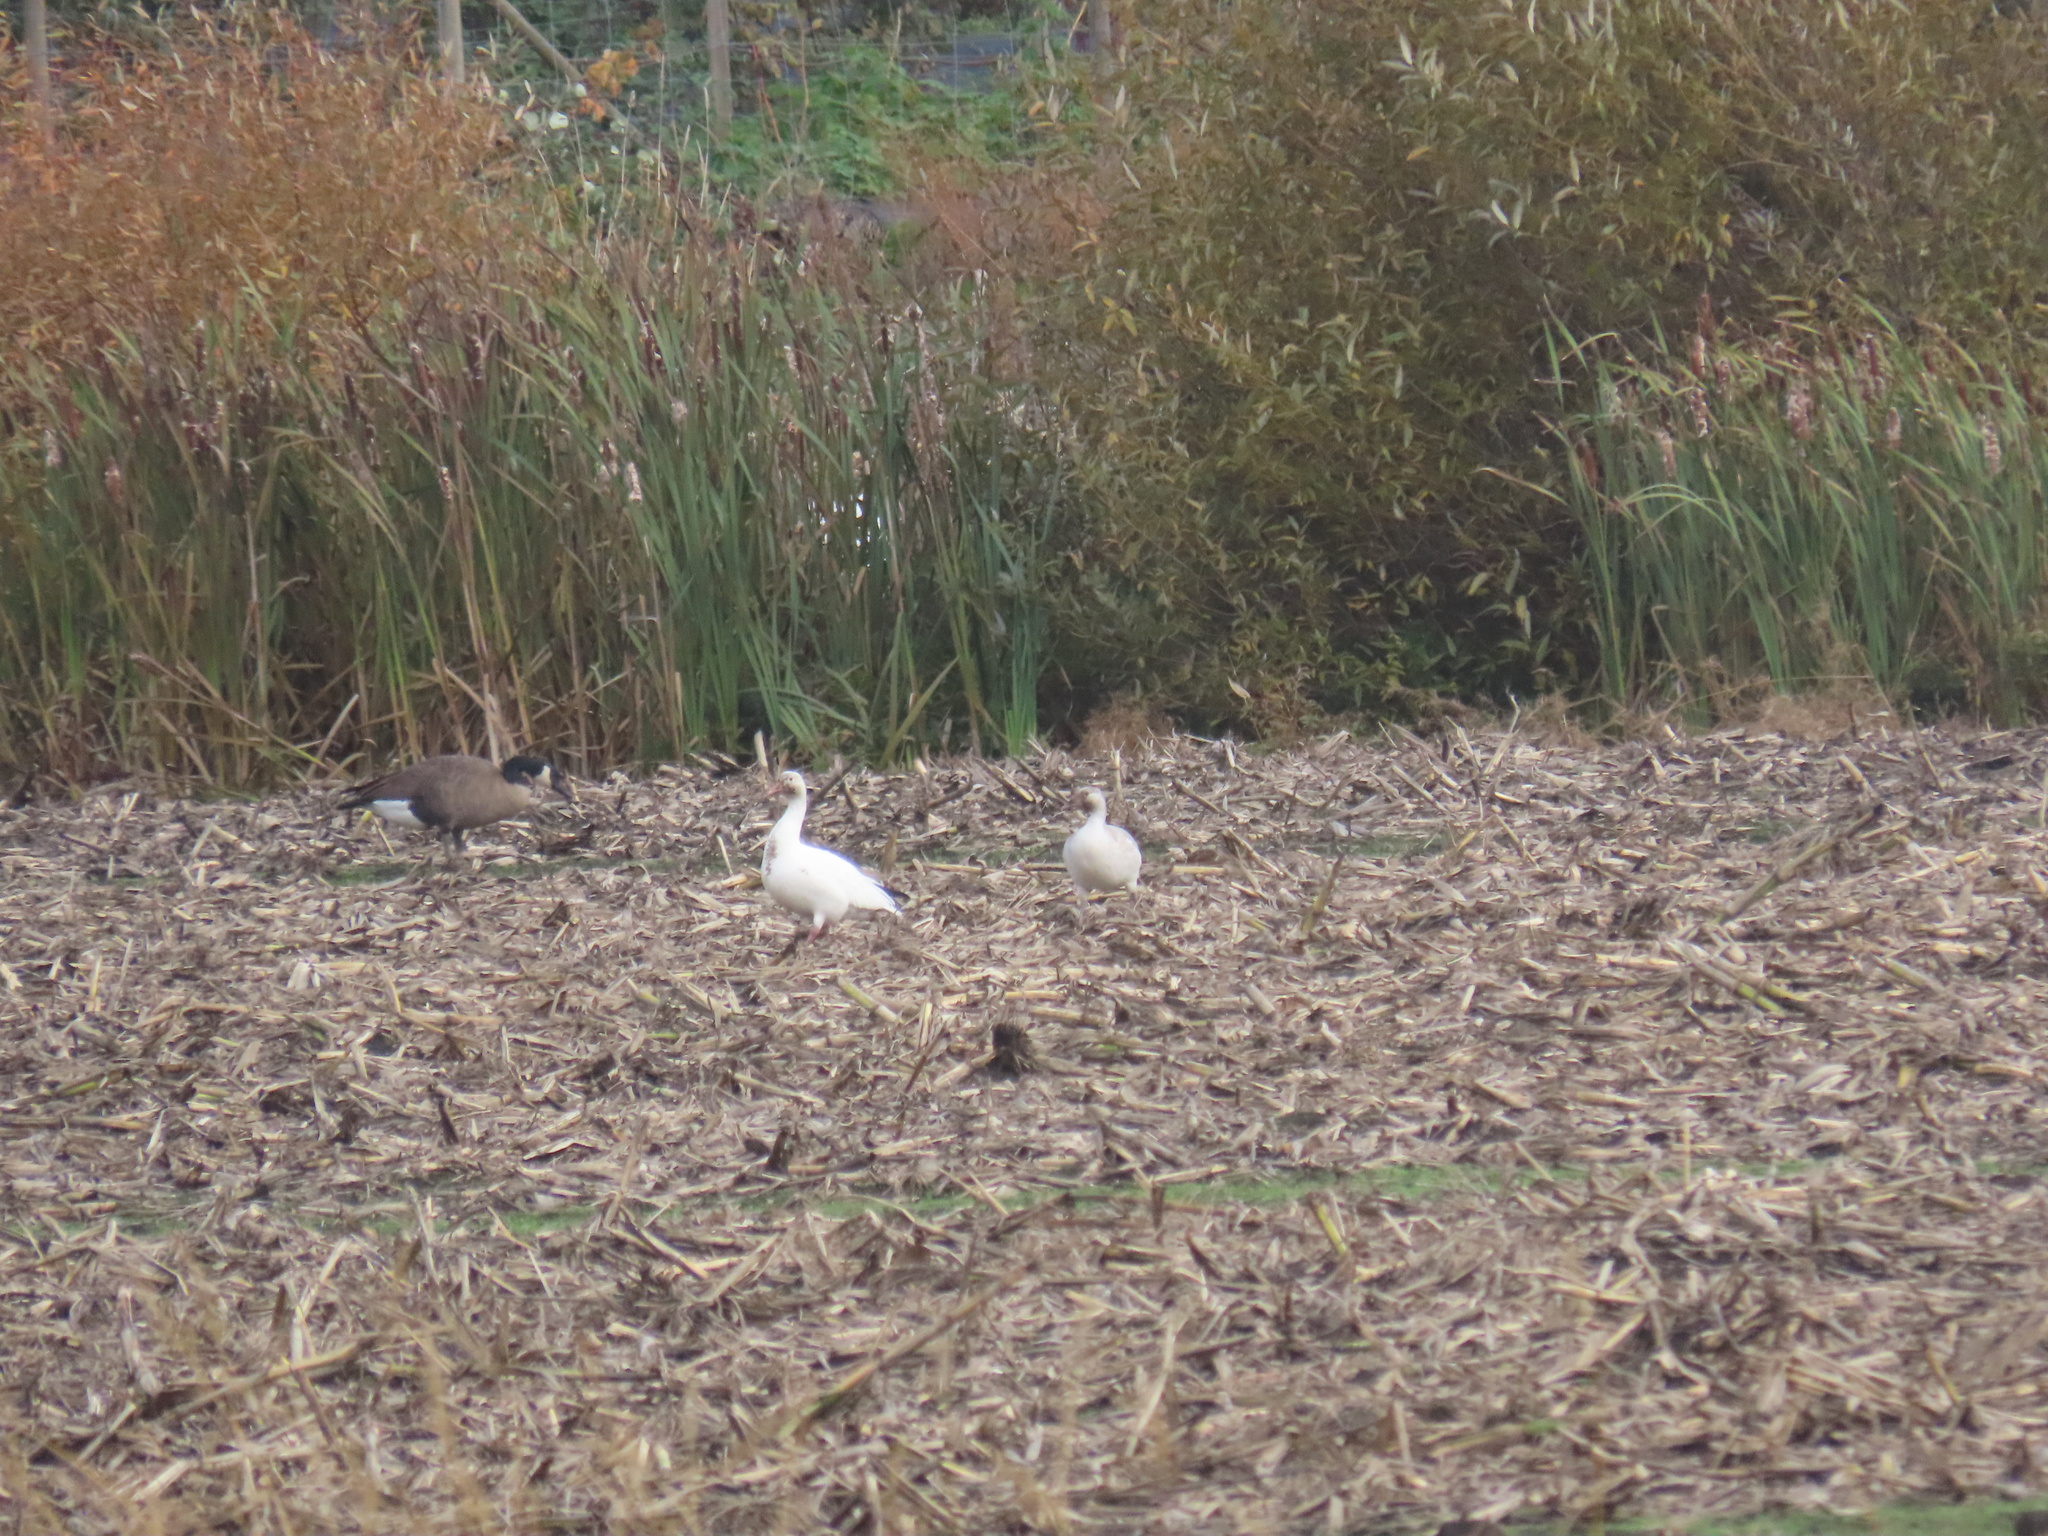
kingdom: Animalia
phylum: Chordata
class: Aves
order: Anseriformes
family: Anatidae
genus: Anser
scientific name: Anser caerulescens
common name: Snow goose
